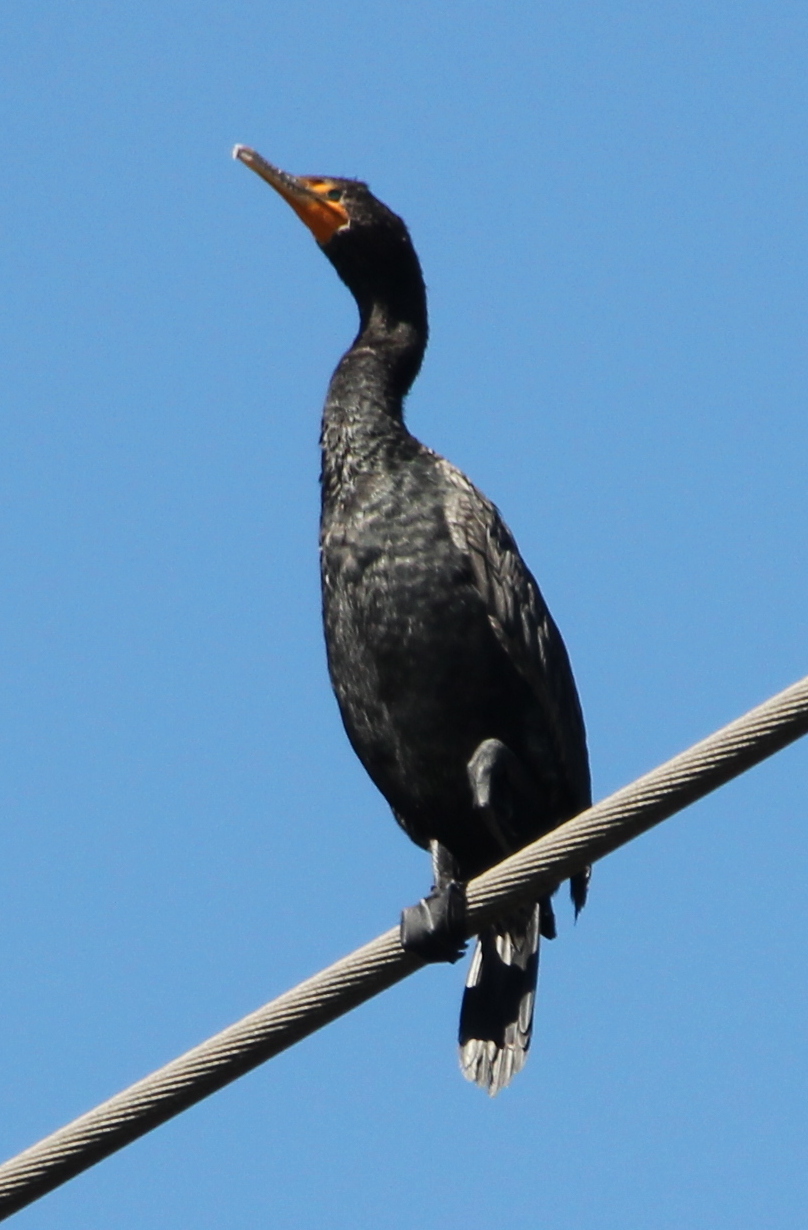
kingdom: Animalia
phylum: Chordata
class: Aves
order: Suliformes
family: Phalacrocoracidae
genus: Phalacrocorax
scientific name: Phalacrocorax auritus
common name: Double-crested cormorant
